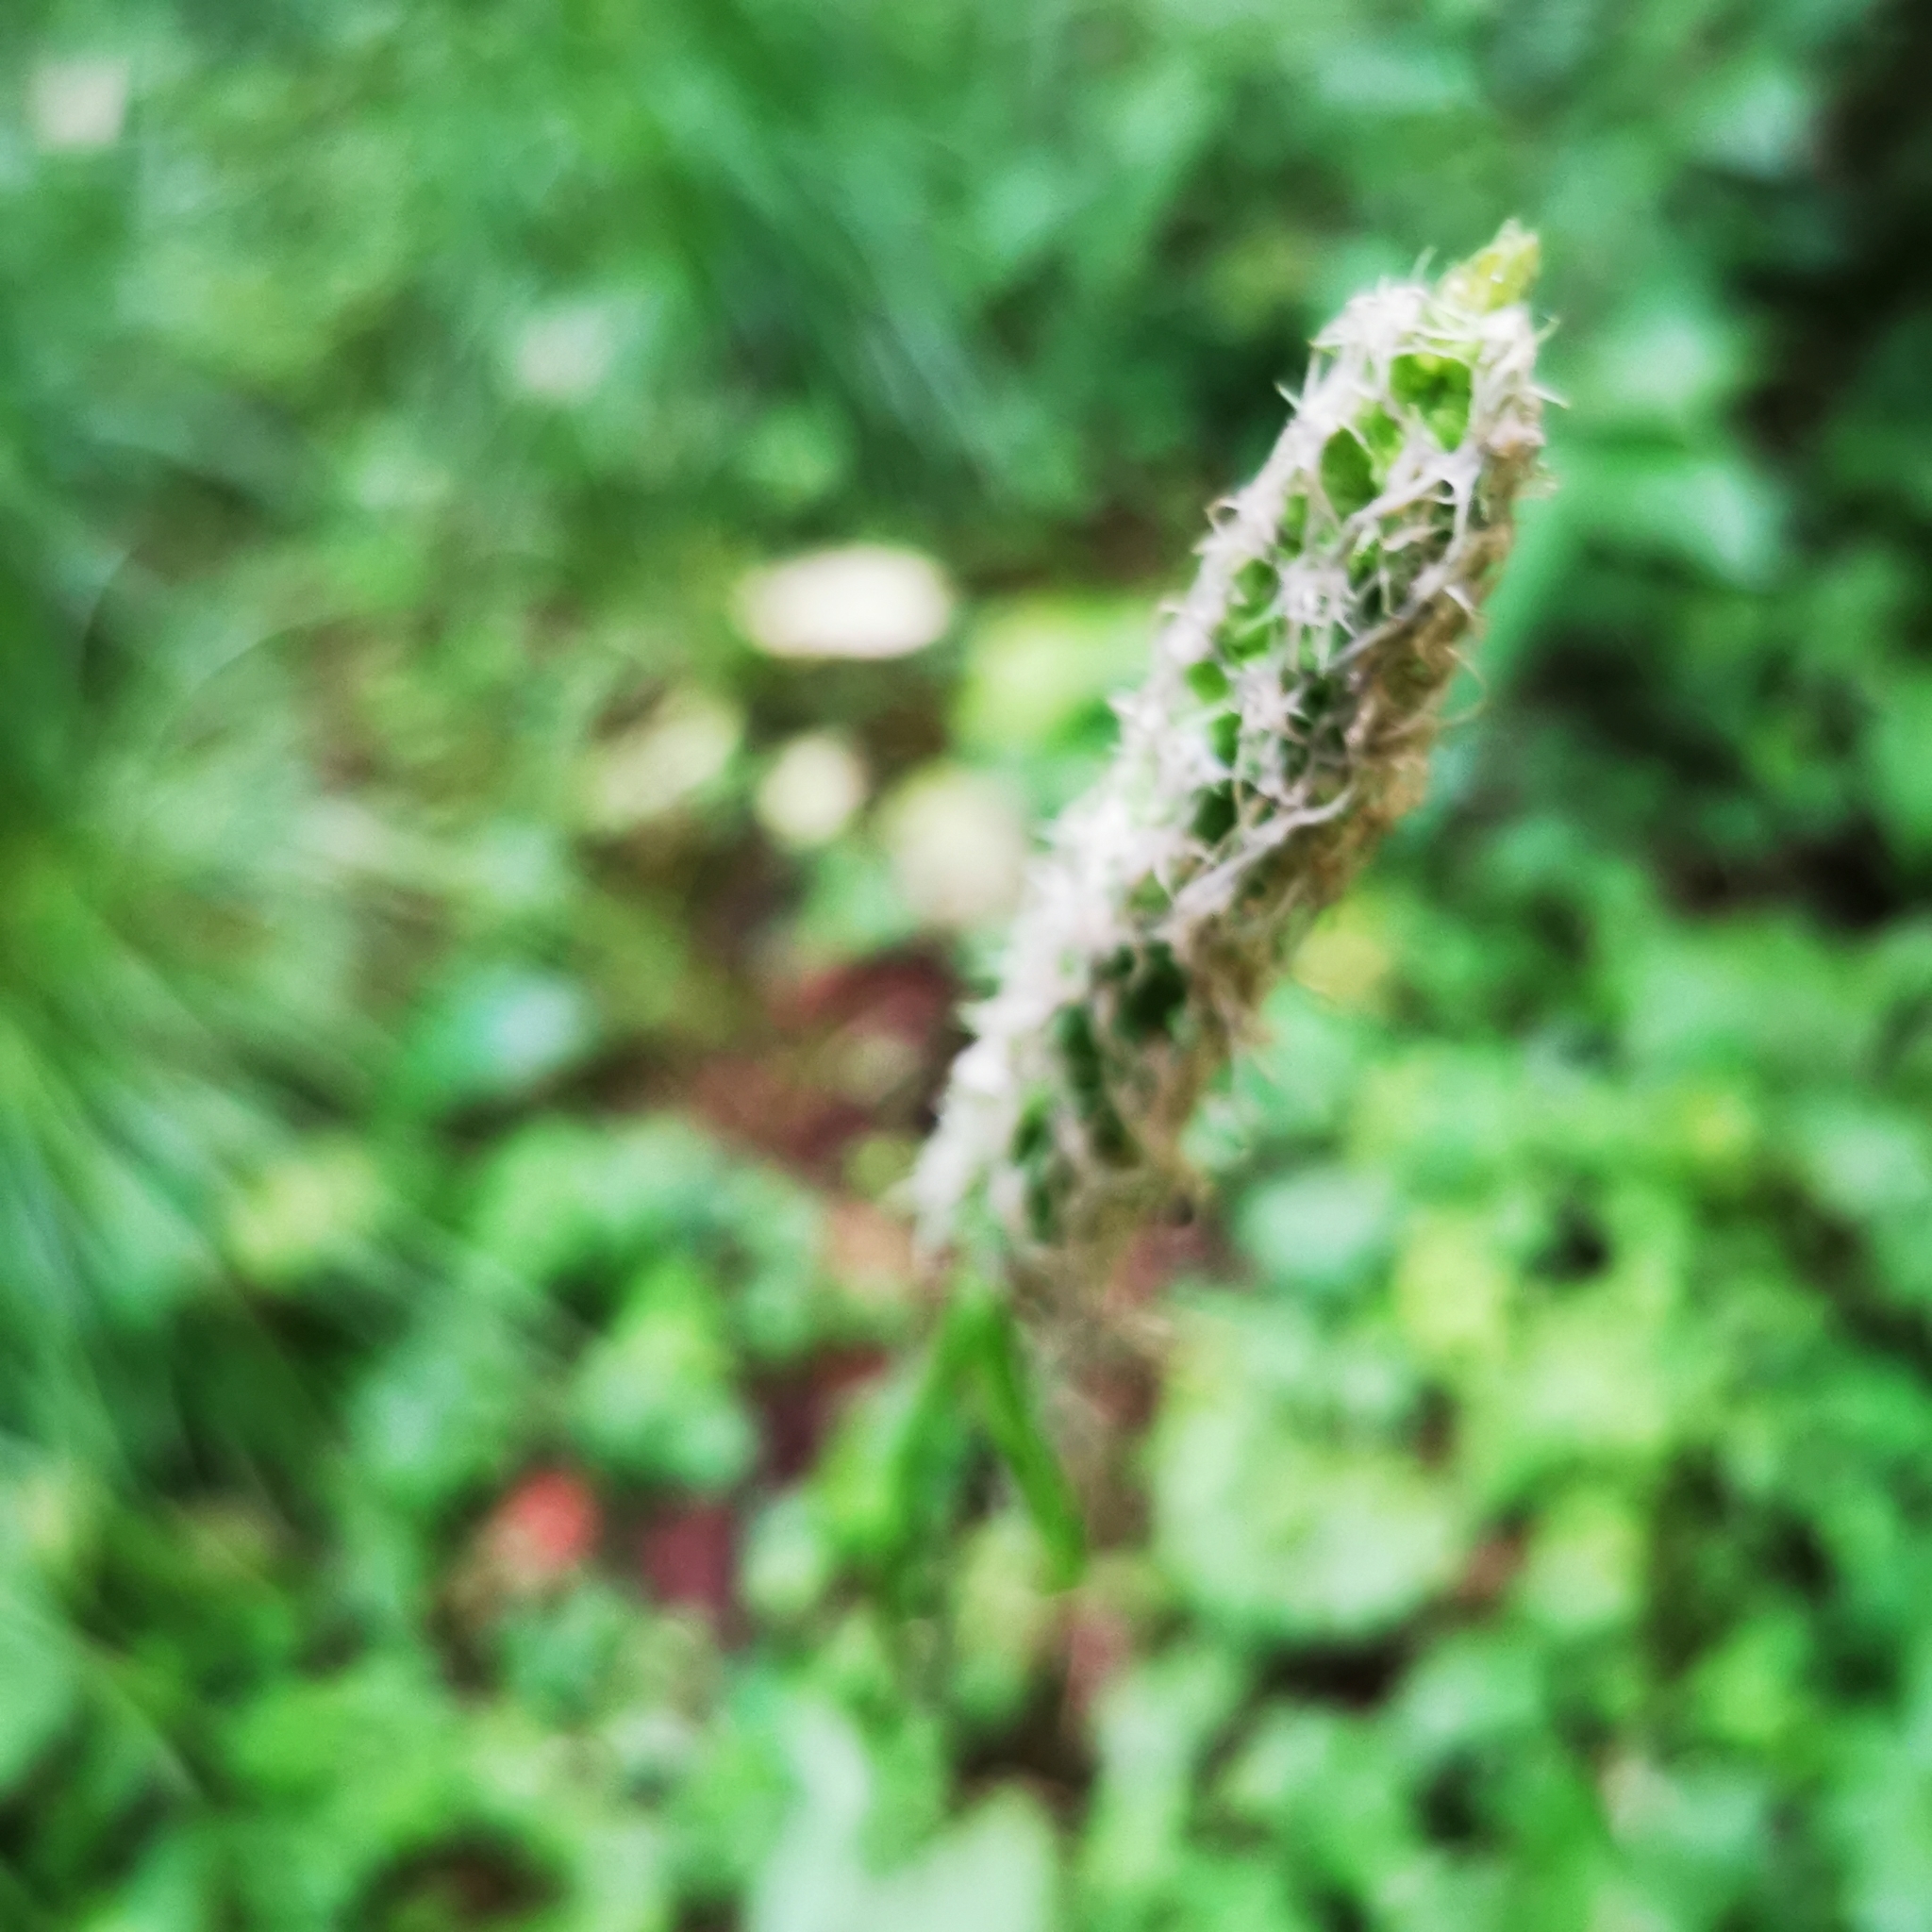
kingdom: Plantae
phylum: Tracheophyta
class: Magnoliopsida
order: Asterales
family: Campanulaceae
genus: Phyteuma
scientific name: Phyteuma spicatum
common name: Spiked rampion
